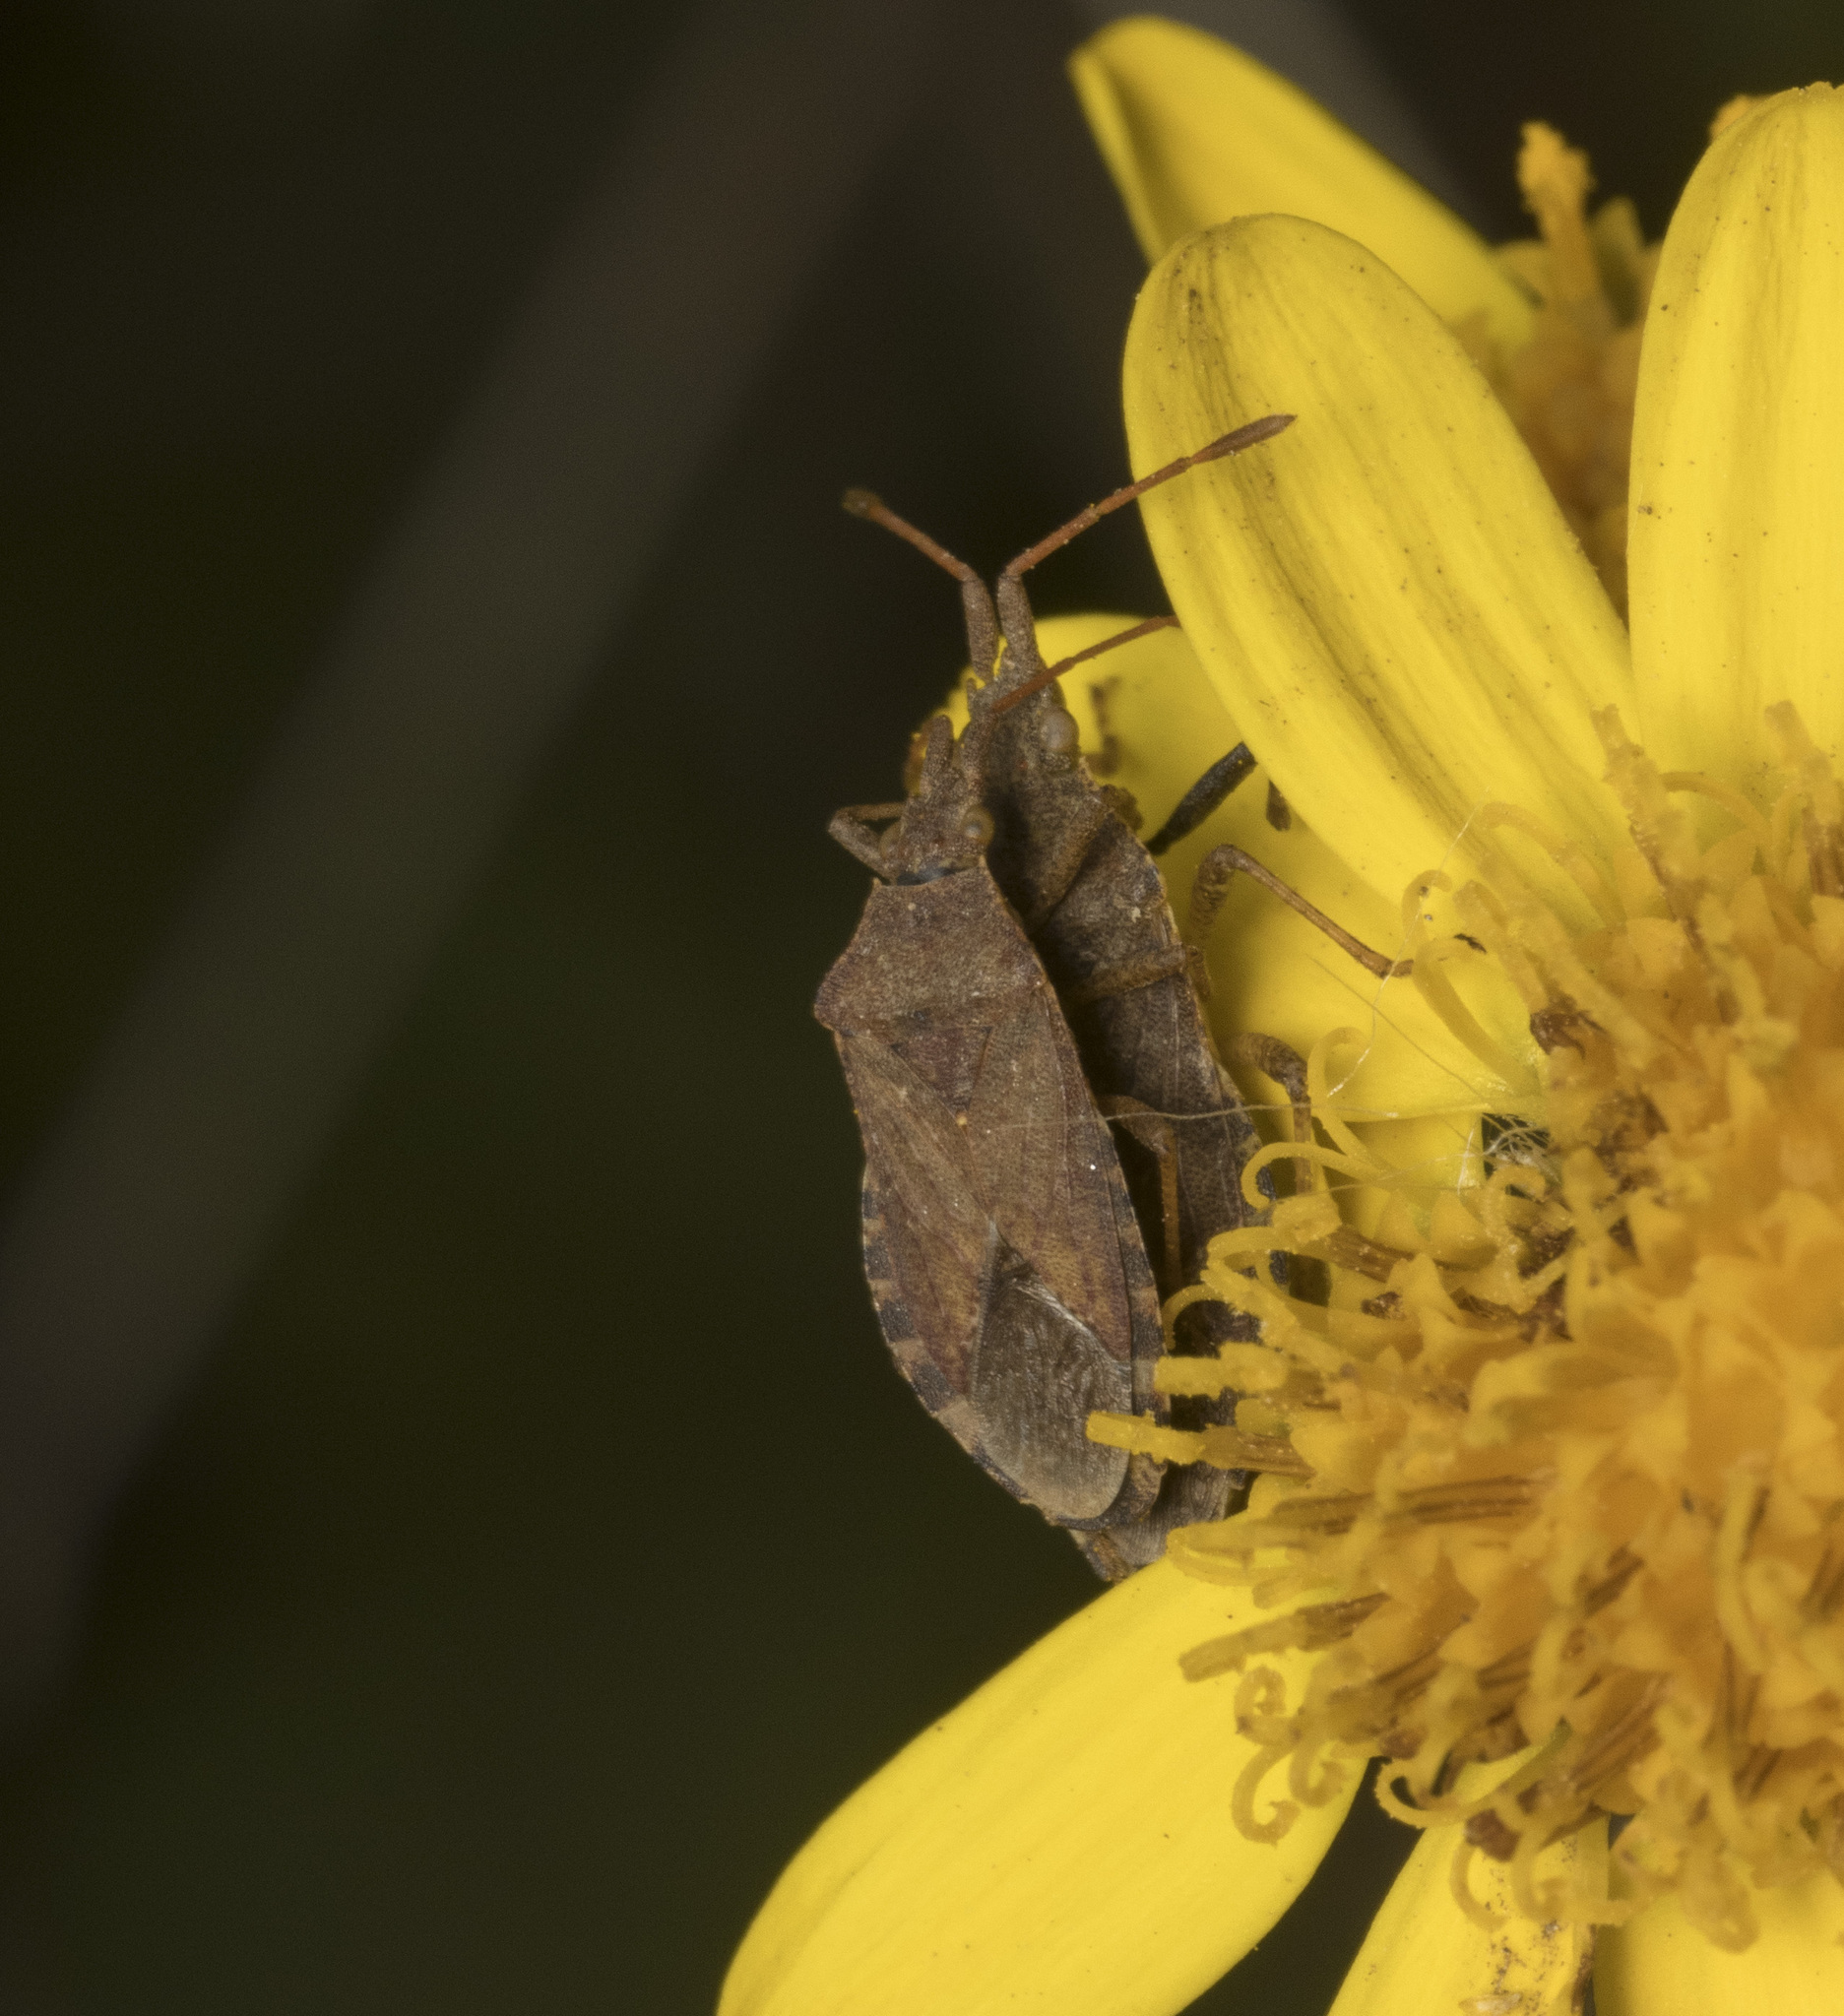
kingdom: Animalia
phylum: Arthropoda
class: Insecta
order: Hemiptera
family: Coreidae
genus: Althos
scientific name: Althos sinuaticollis
